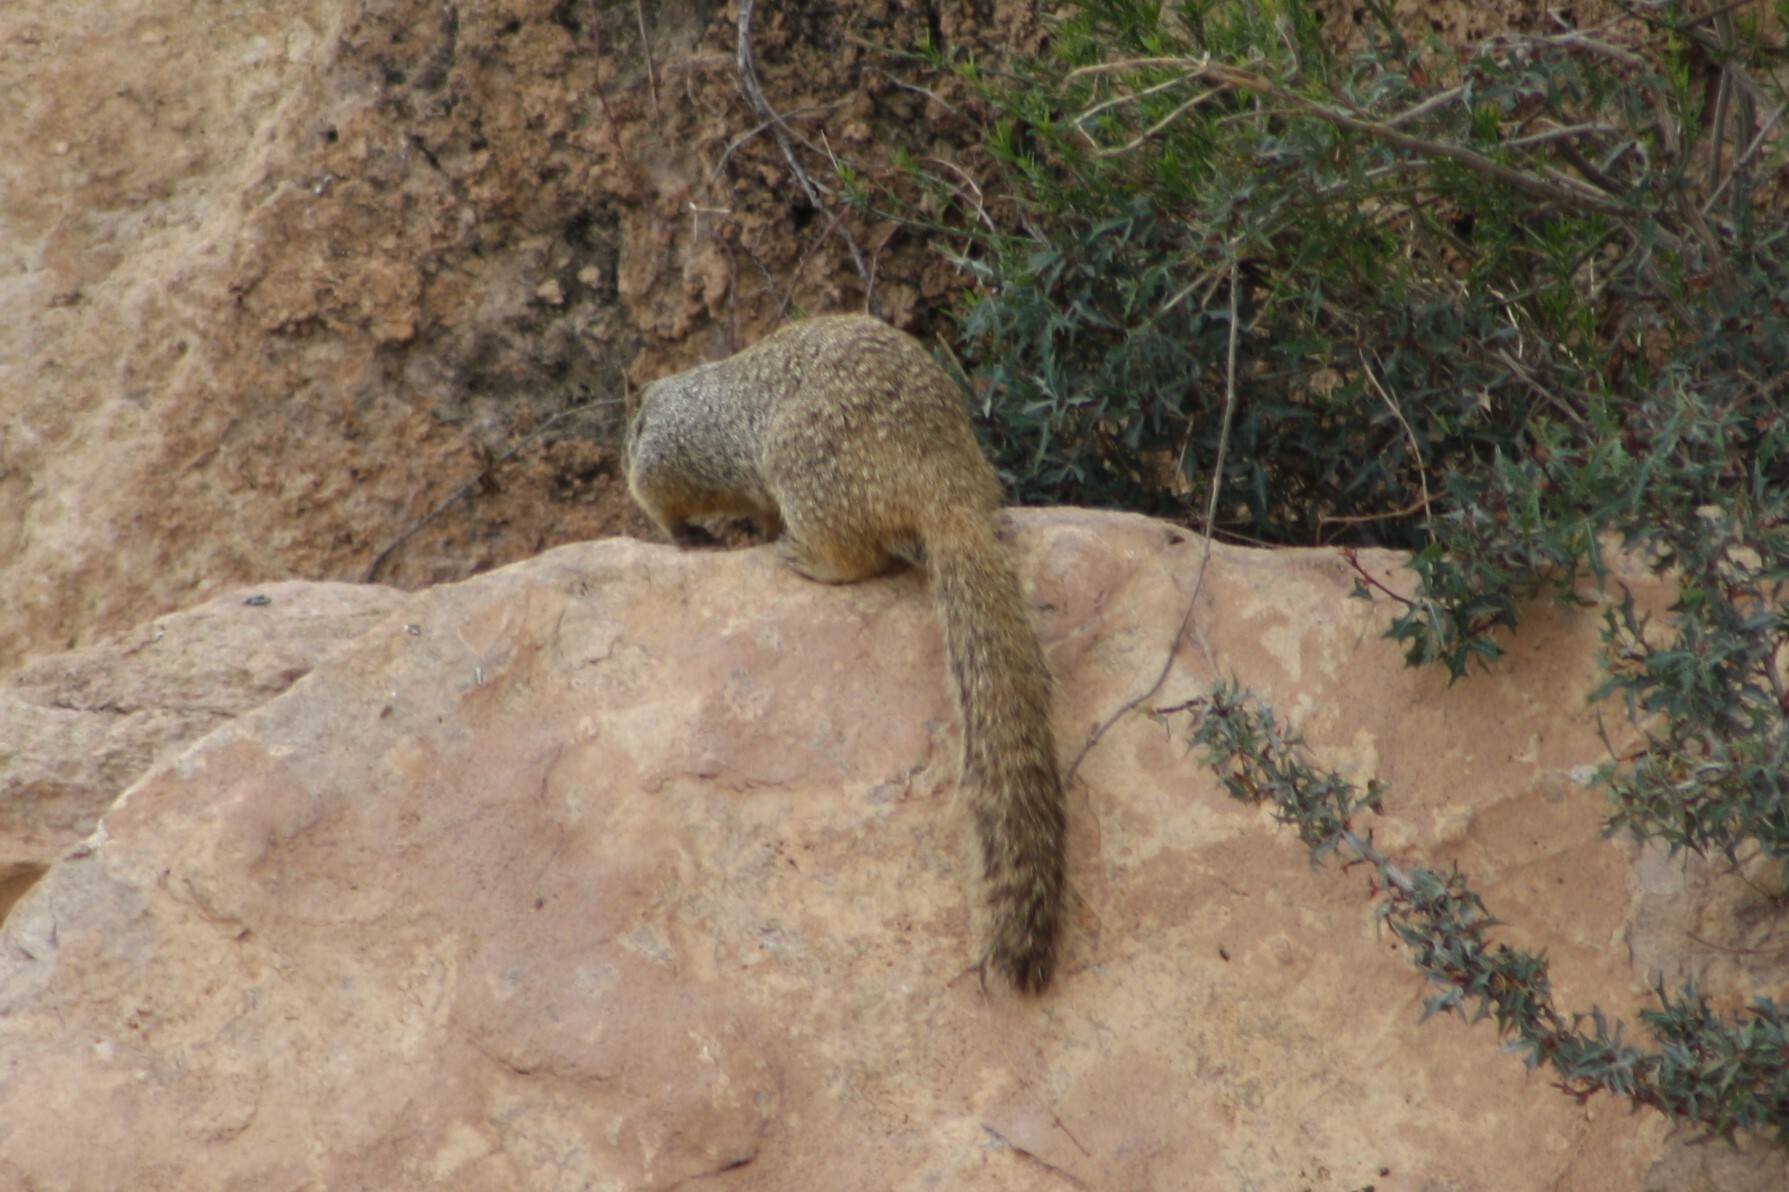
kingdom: Animalia
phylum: Chordata
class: Mammalia
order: Rodentia
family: Sciuridae
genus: Otospermophilus
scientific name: Otospermophilus variegatus
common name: Rock squirrel
